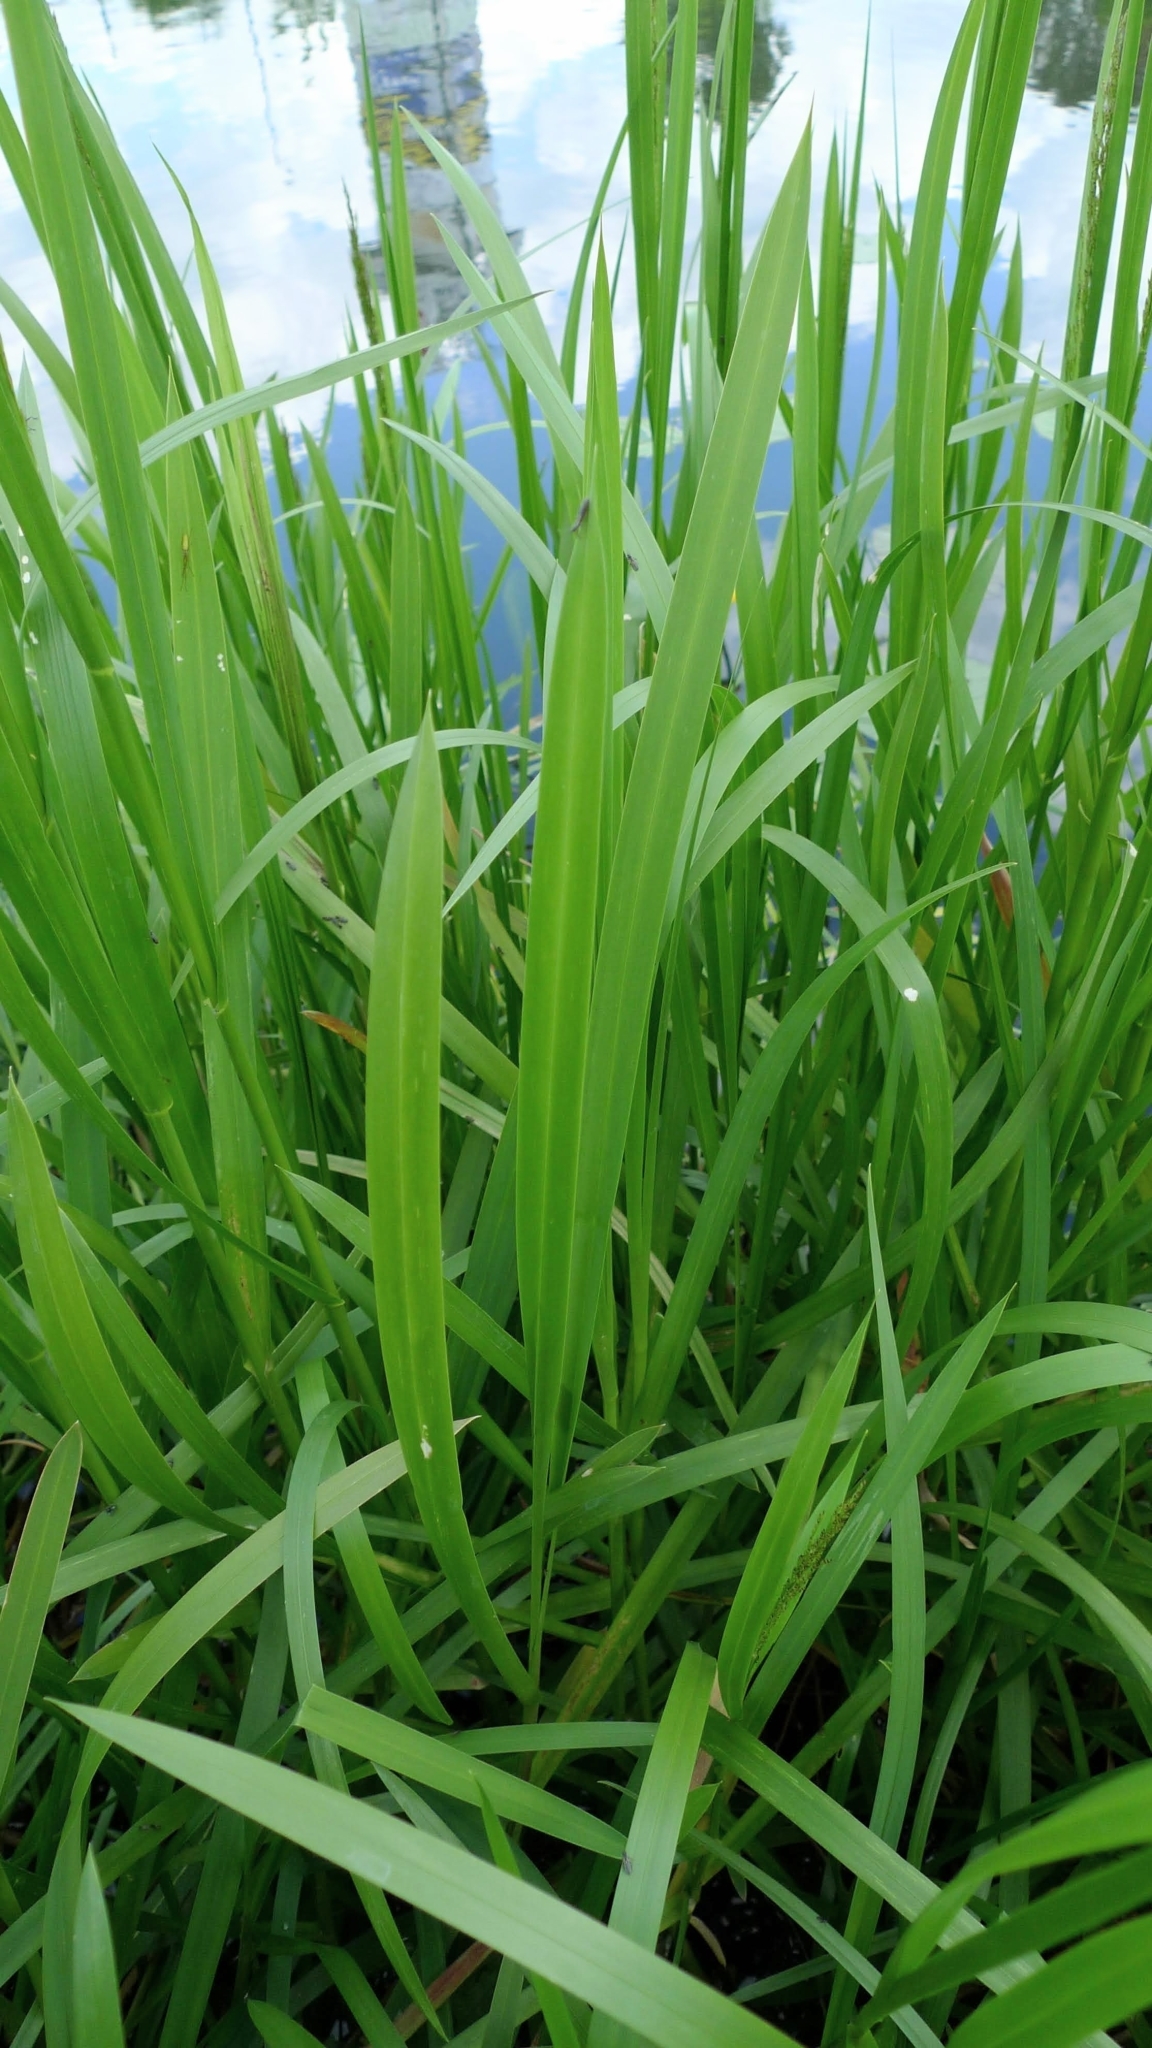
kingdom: Plantae
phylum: Tracheophyta
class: Liliopsida
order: Poales
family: Poaceae
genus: Glyceria
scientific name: Glyceria maxima
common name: Reed mannagrass
